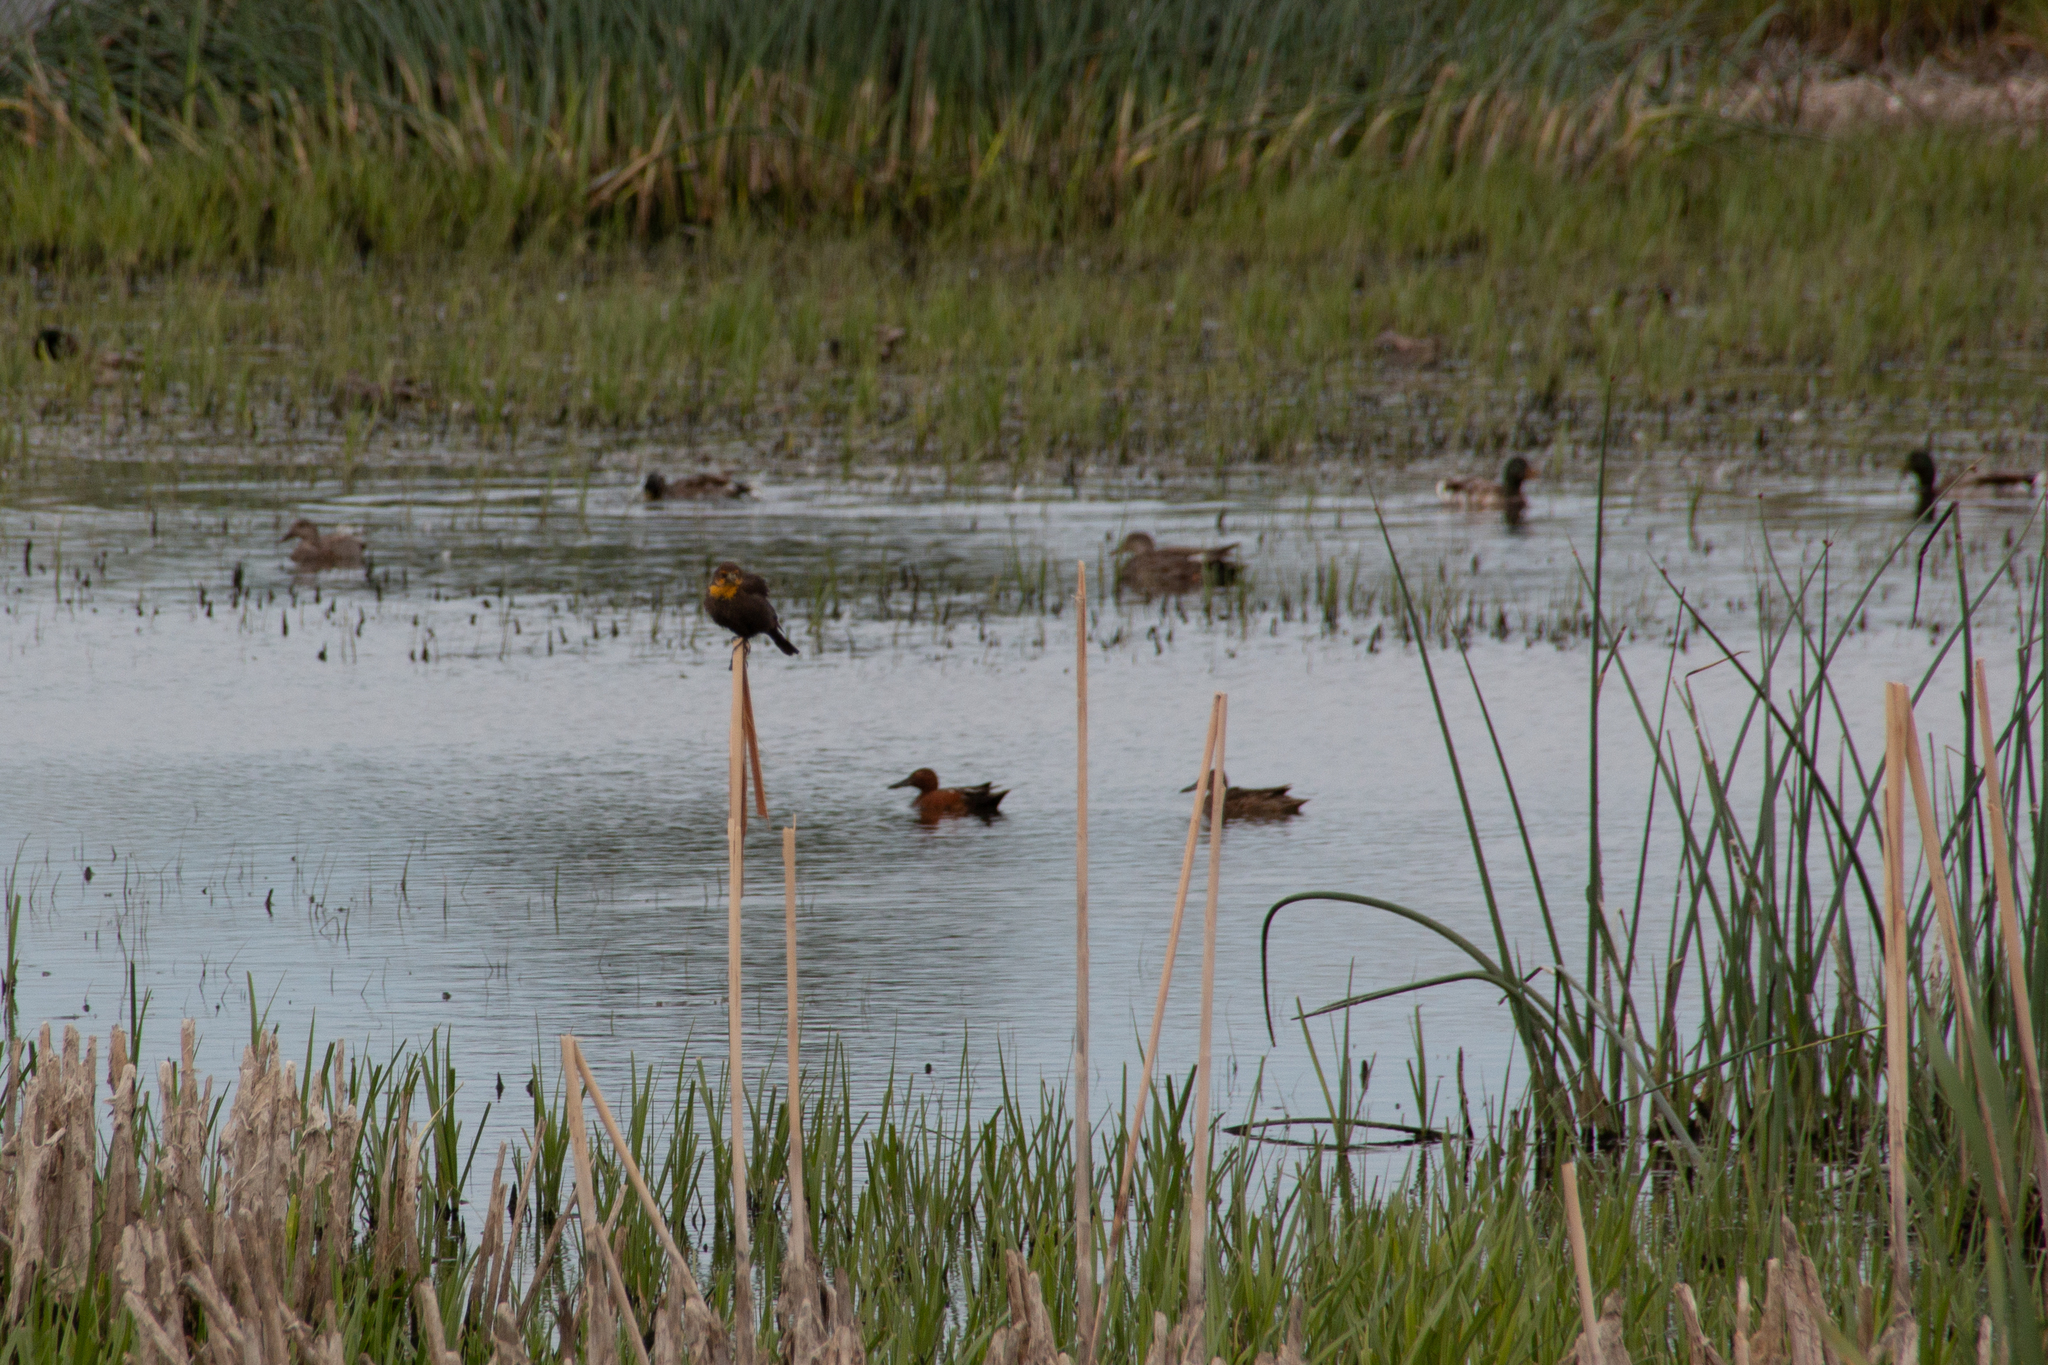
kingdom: Animalia
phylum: Chordata
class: Aves
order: Passeriformes
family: Icteridae
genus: Xanthocephalus
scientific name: Xanthocephalus xanthocephalus
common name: Yellow-headed blackbird
